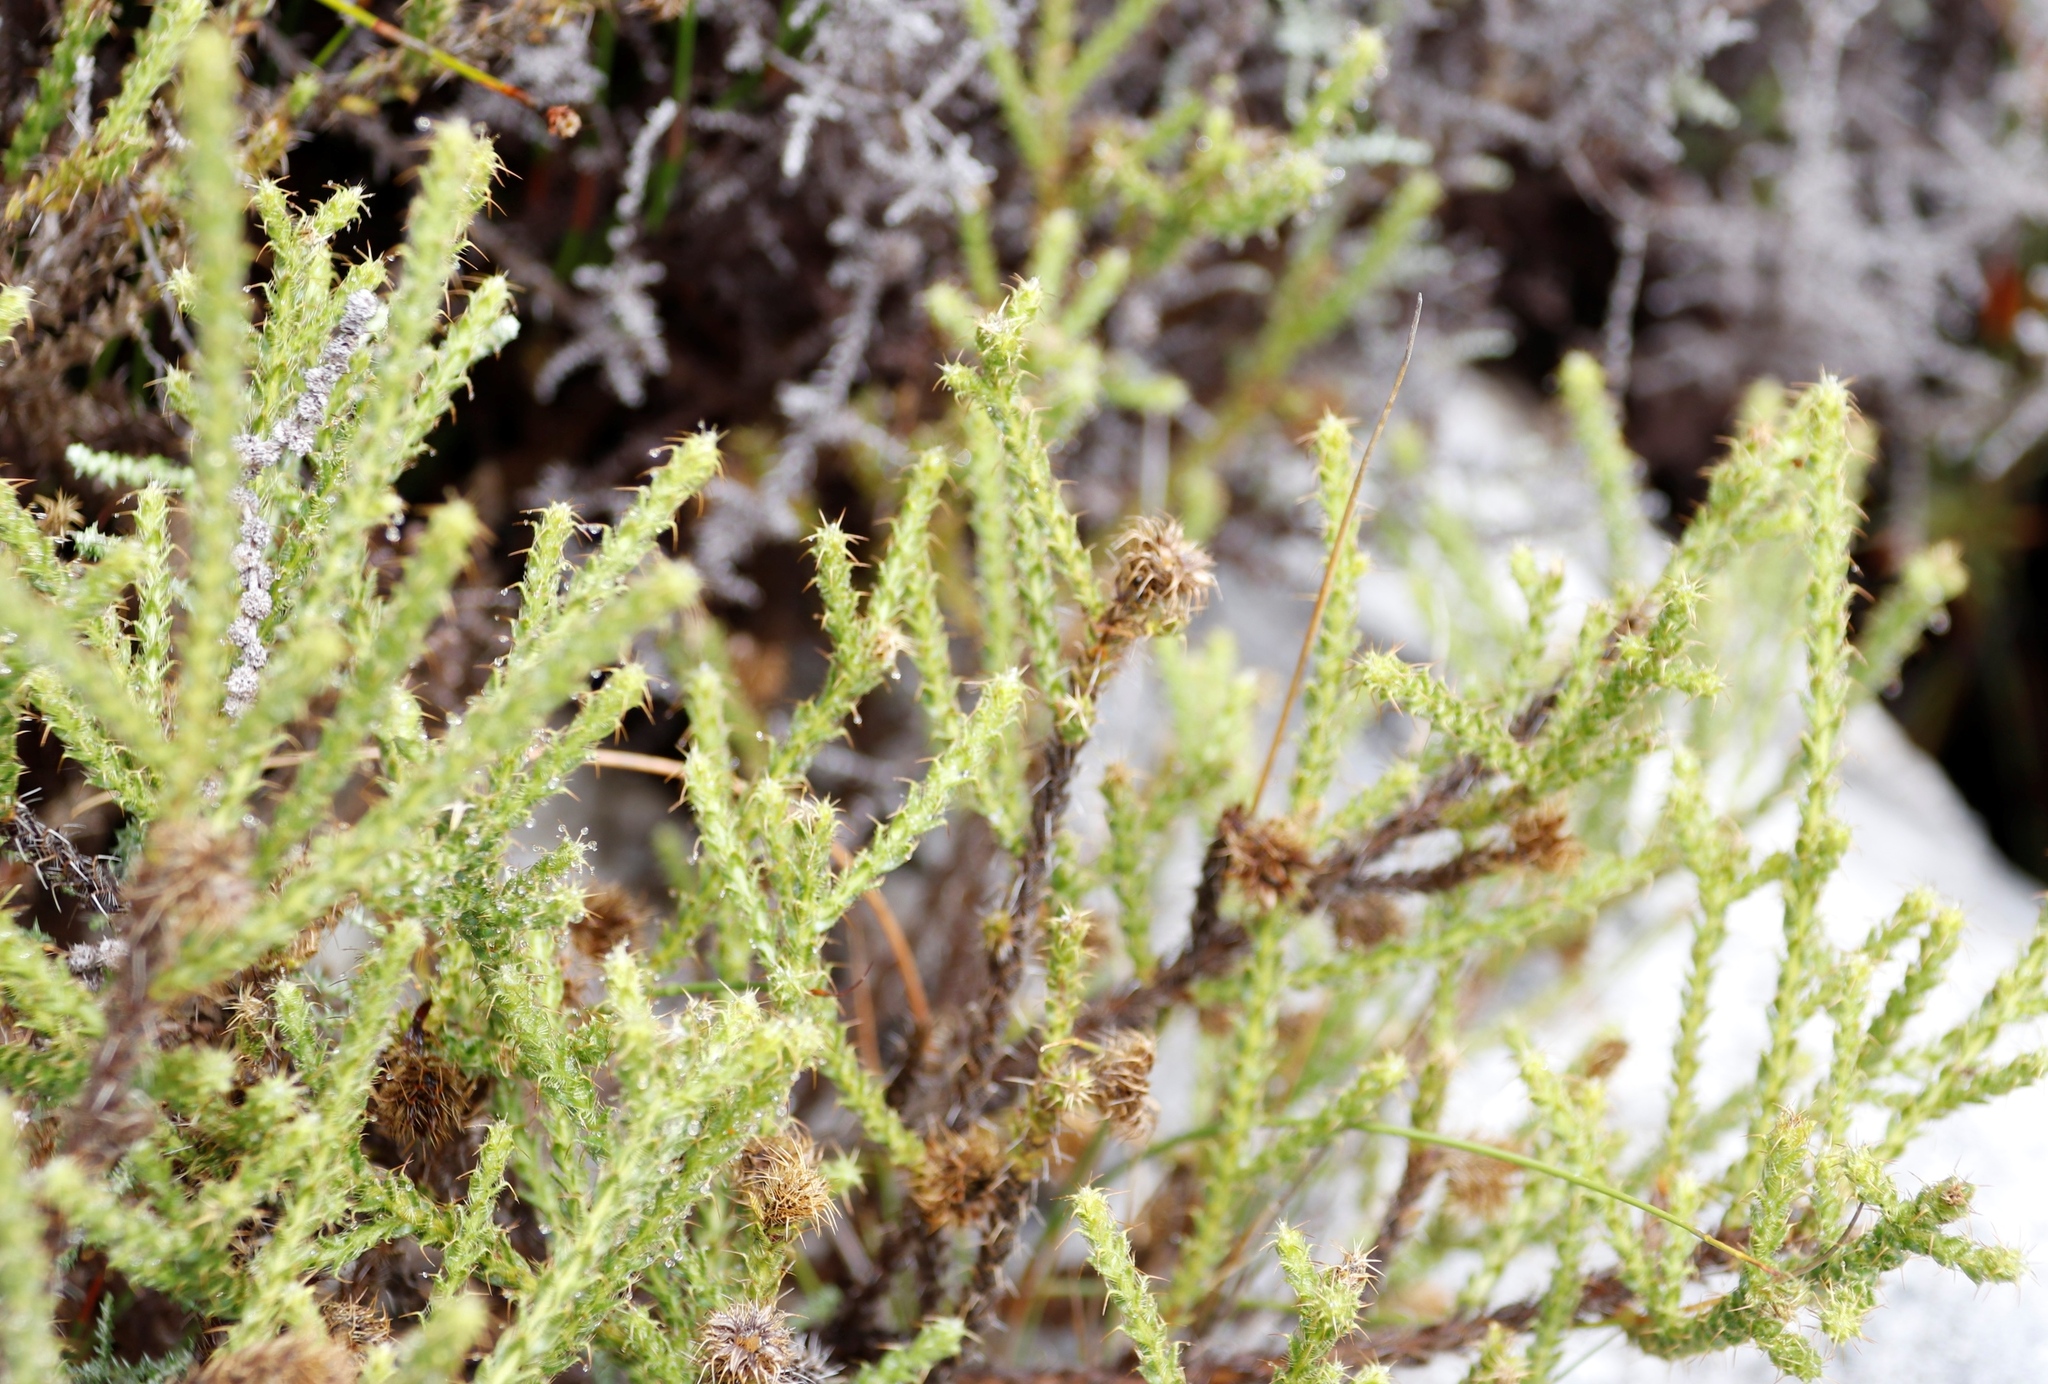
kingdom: Plantae
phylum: Tracheophyta
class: Magnoliopsida
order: Asterales
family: Asteraceae
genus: Cullumia
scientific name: Cullumia reticulata
